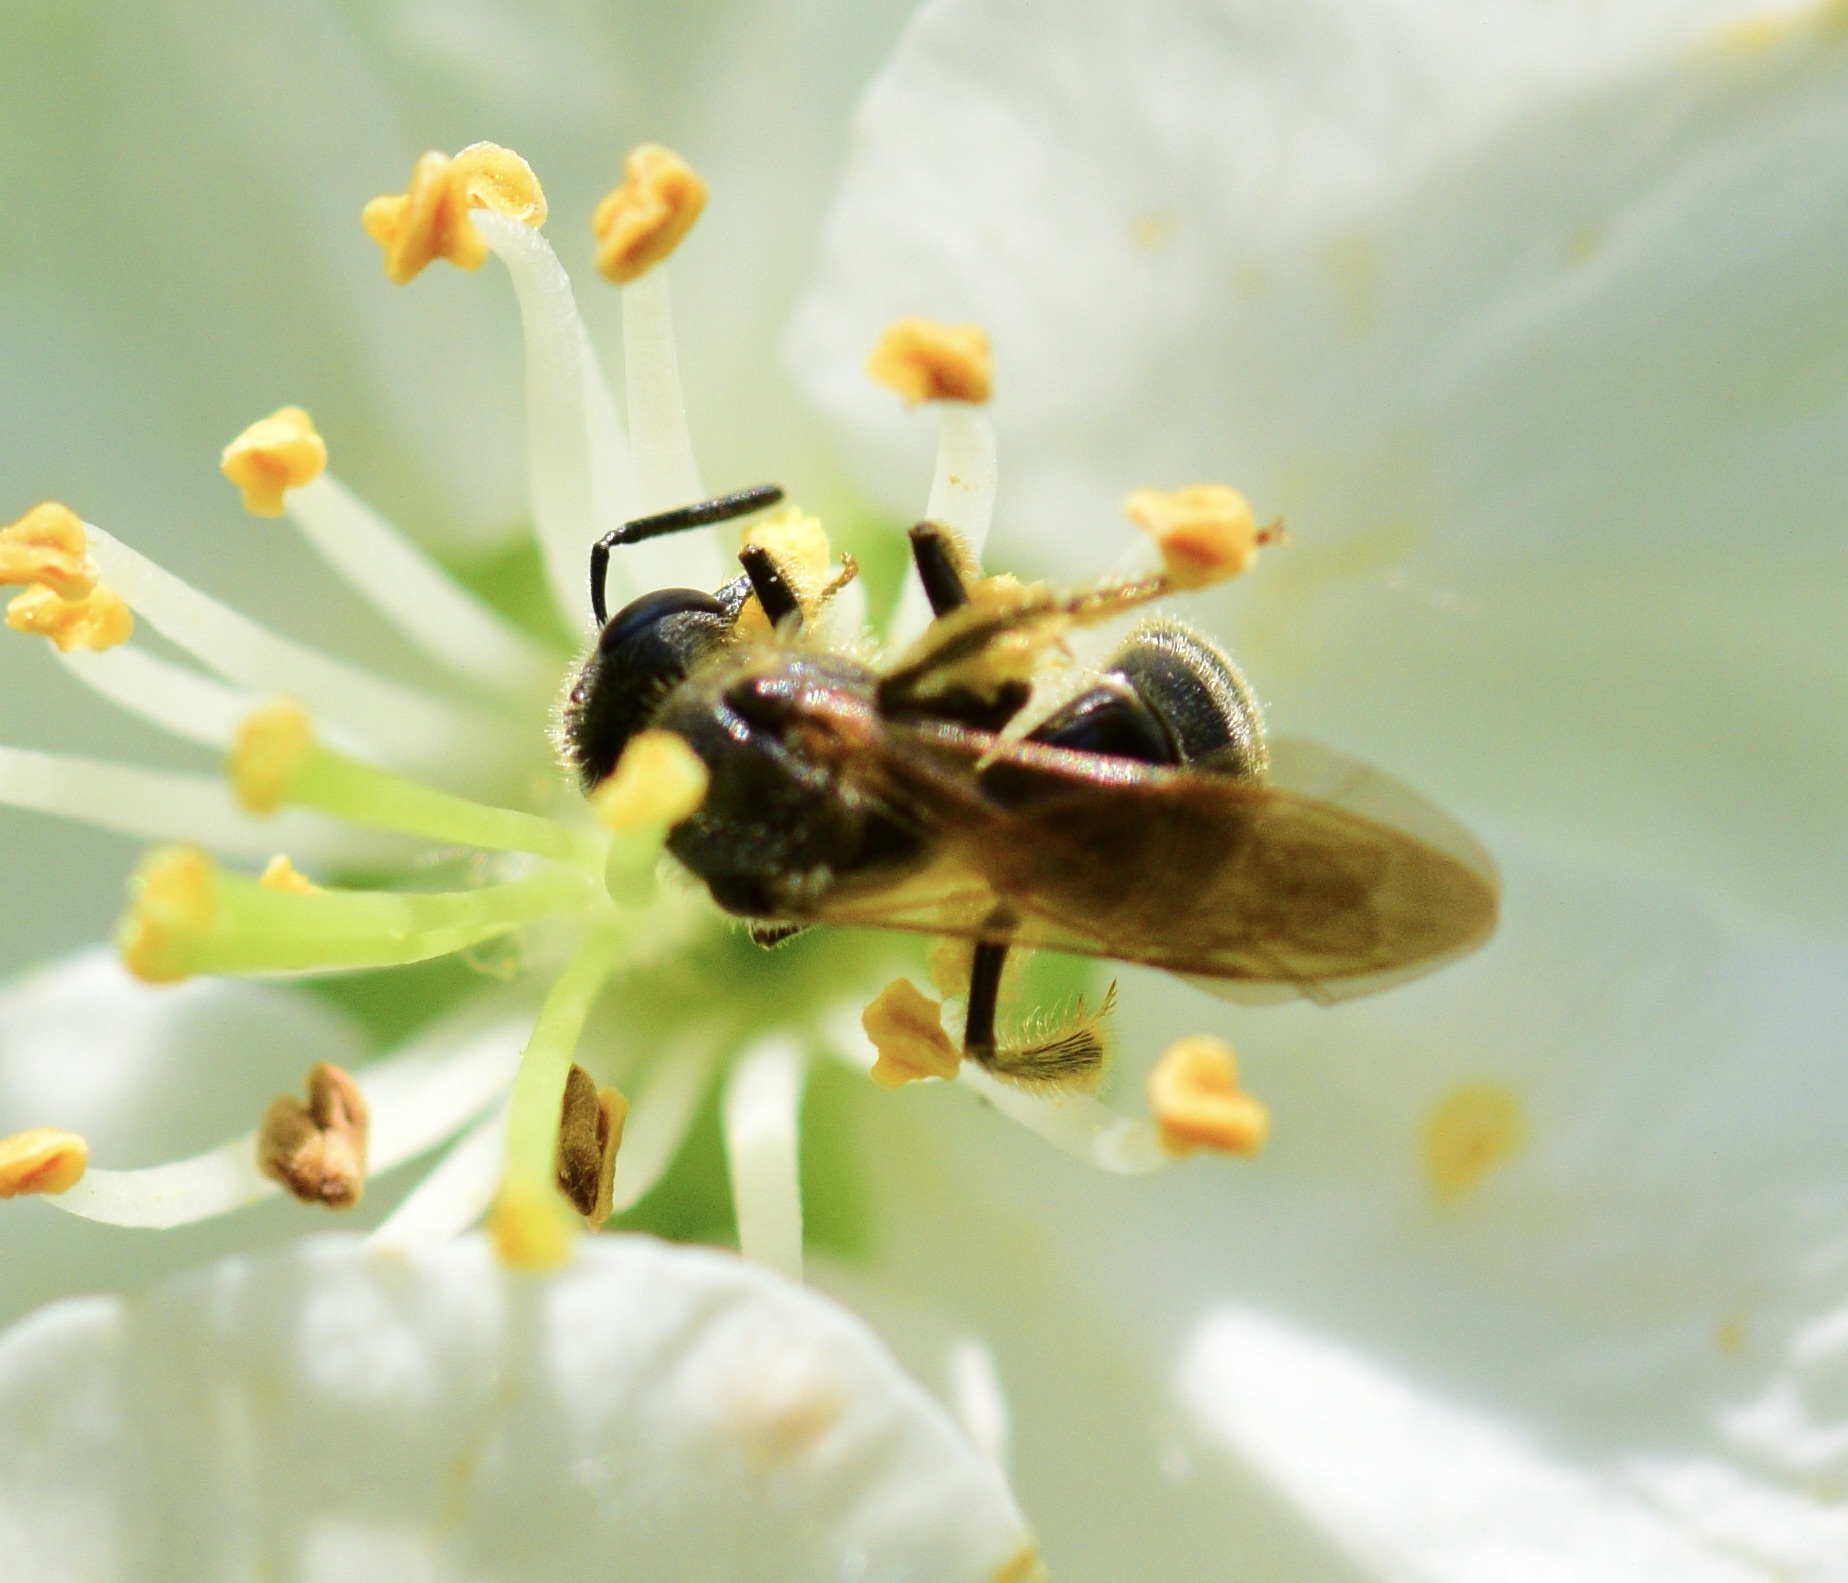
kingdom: Animalia
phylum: Arthropoda
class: Insecta
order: Hymenoptera
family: Halictidae
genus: Lasioglossum
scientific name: Lasioglossum quebecense
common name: Quebec sweat bee
